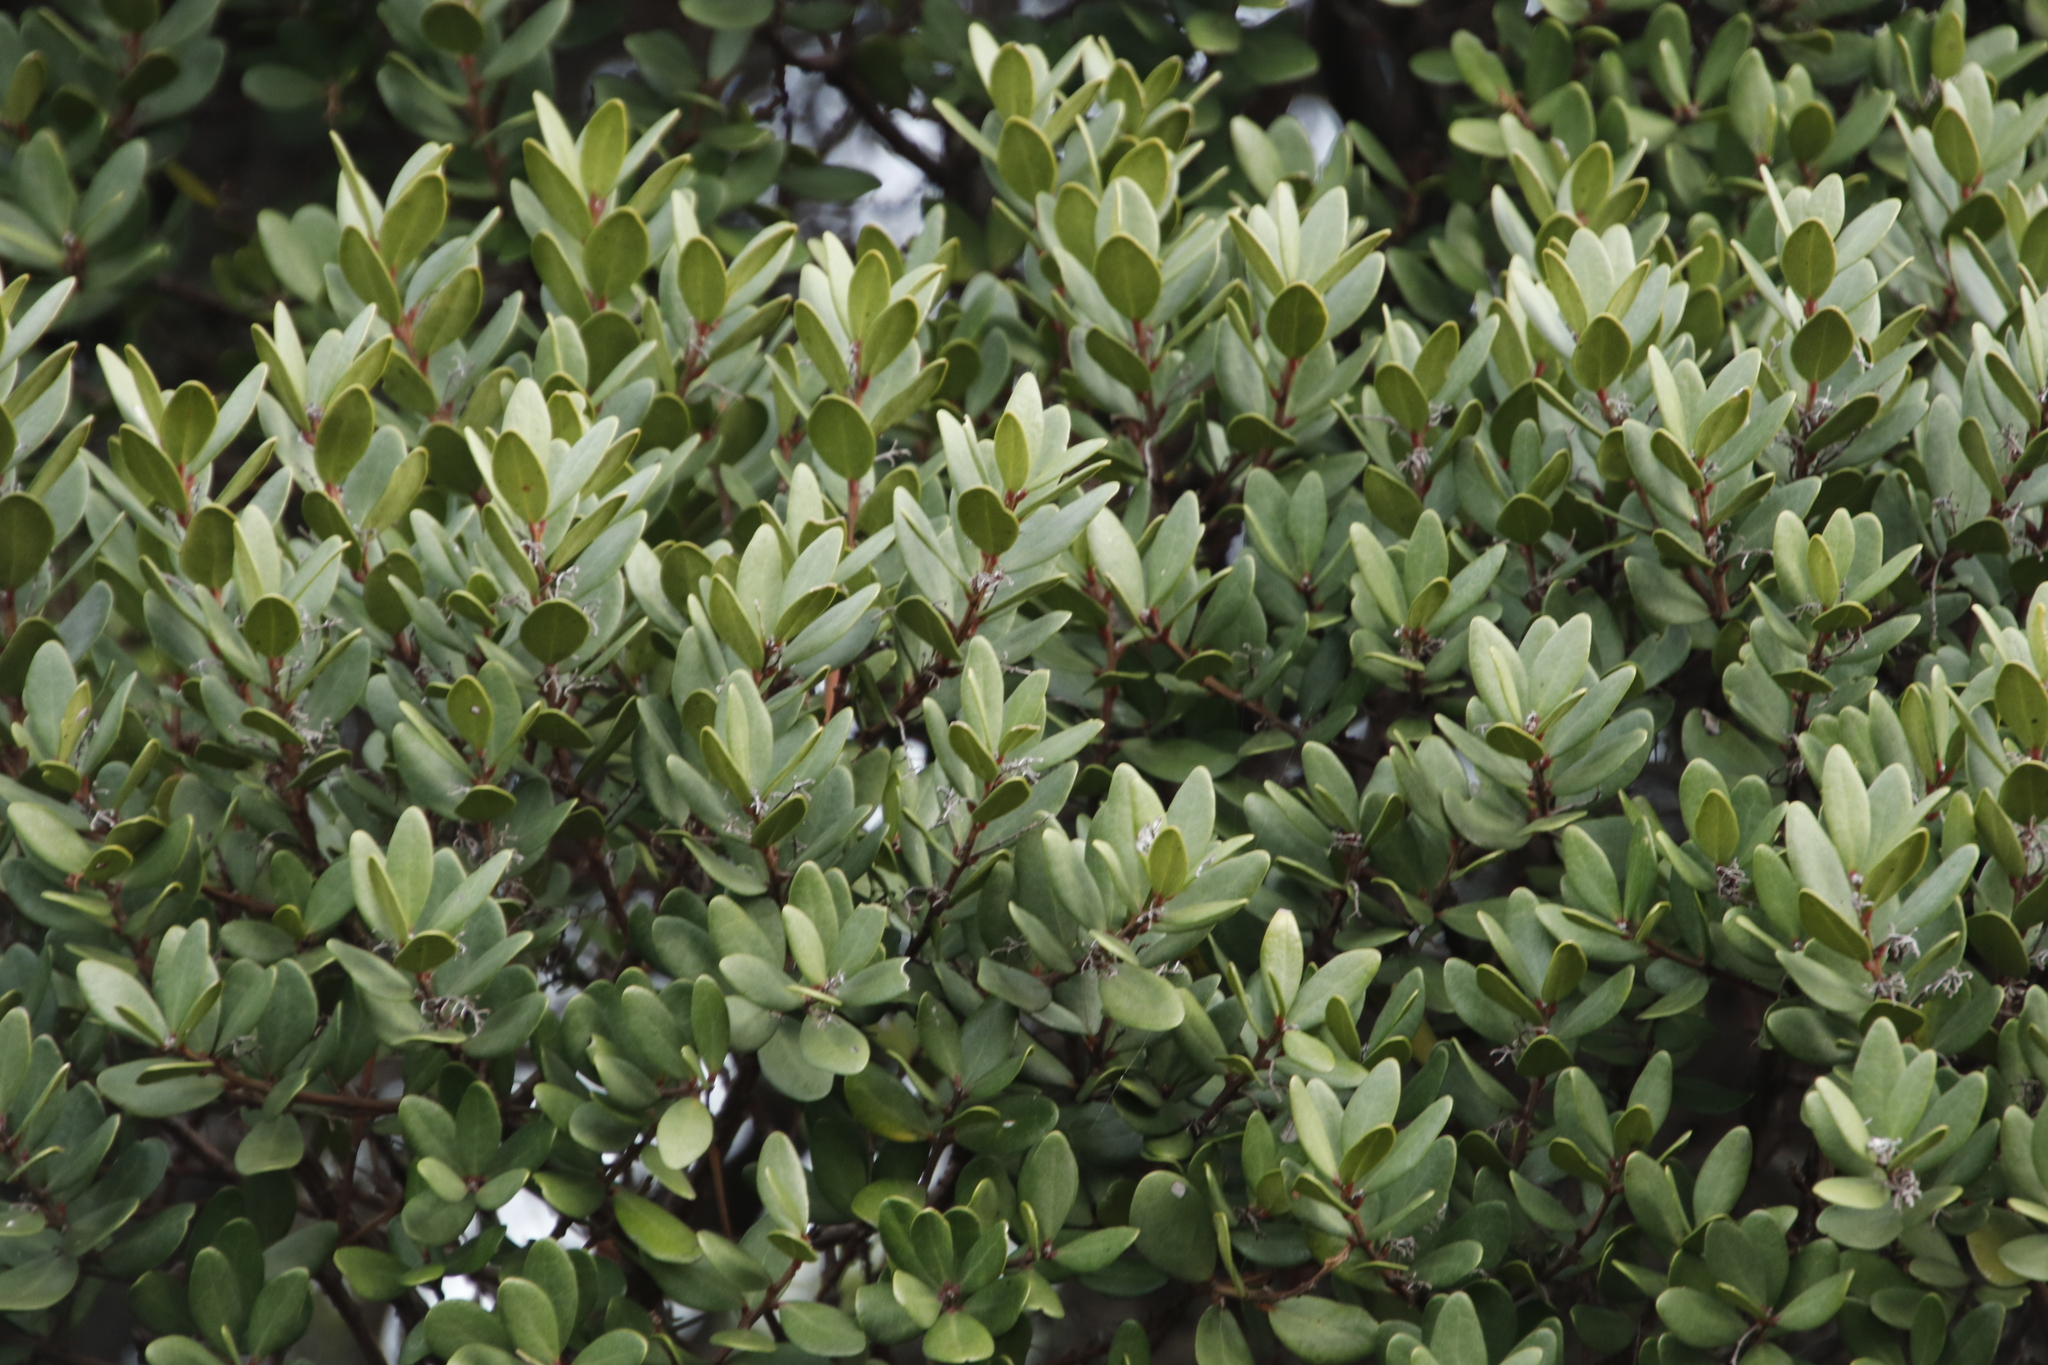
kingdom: Plantae
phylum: Tracheophyta
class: Magnoliopsida
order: Ericales
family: Ebenaceae
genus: Euclea
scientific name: Euclea racemosa
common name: Dune guarri
